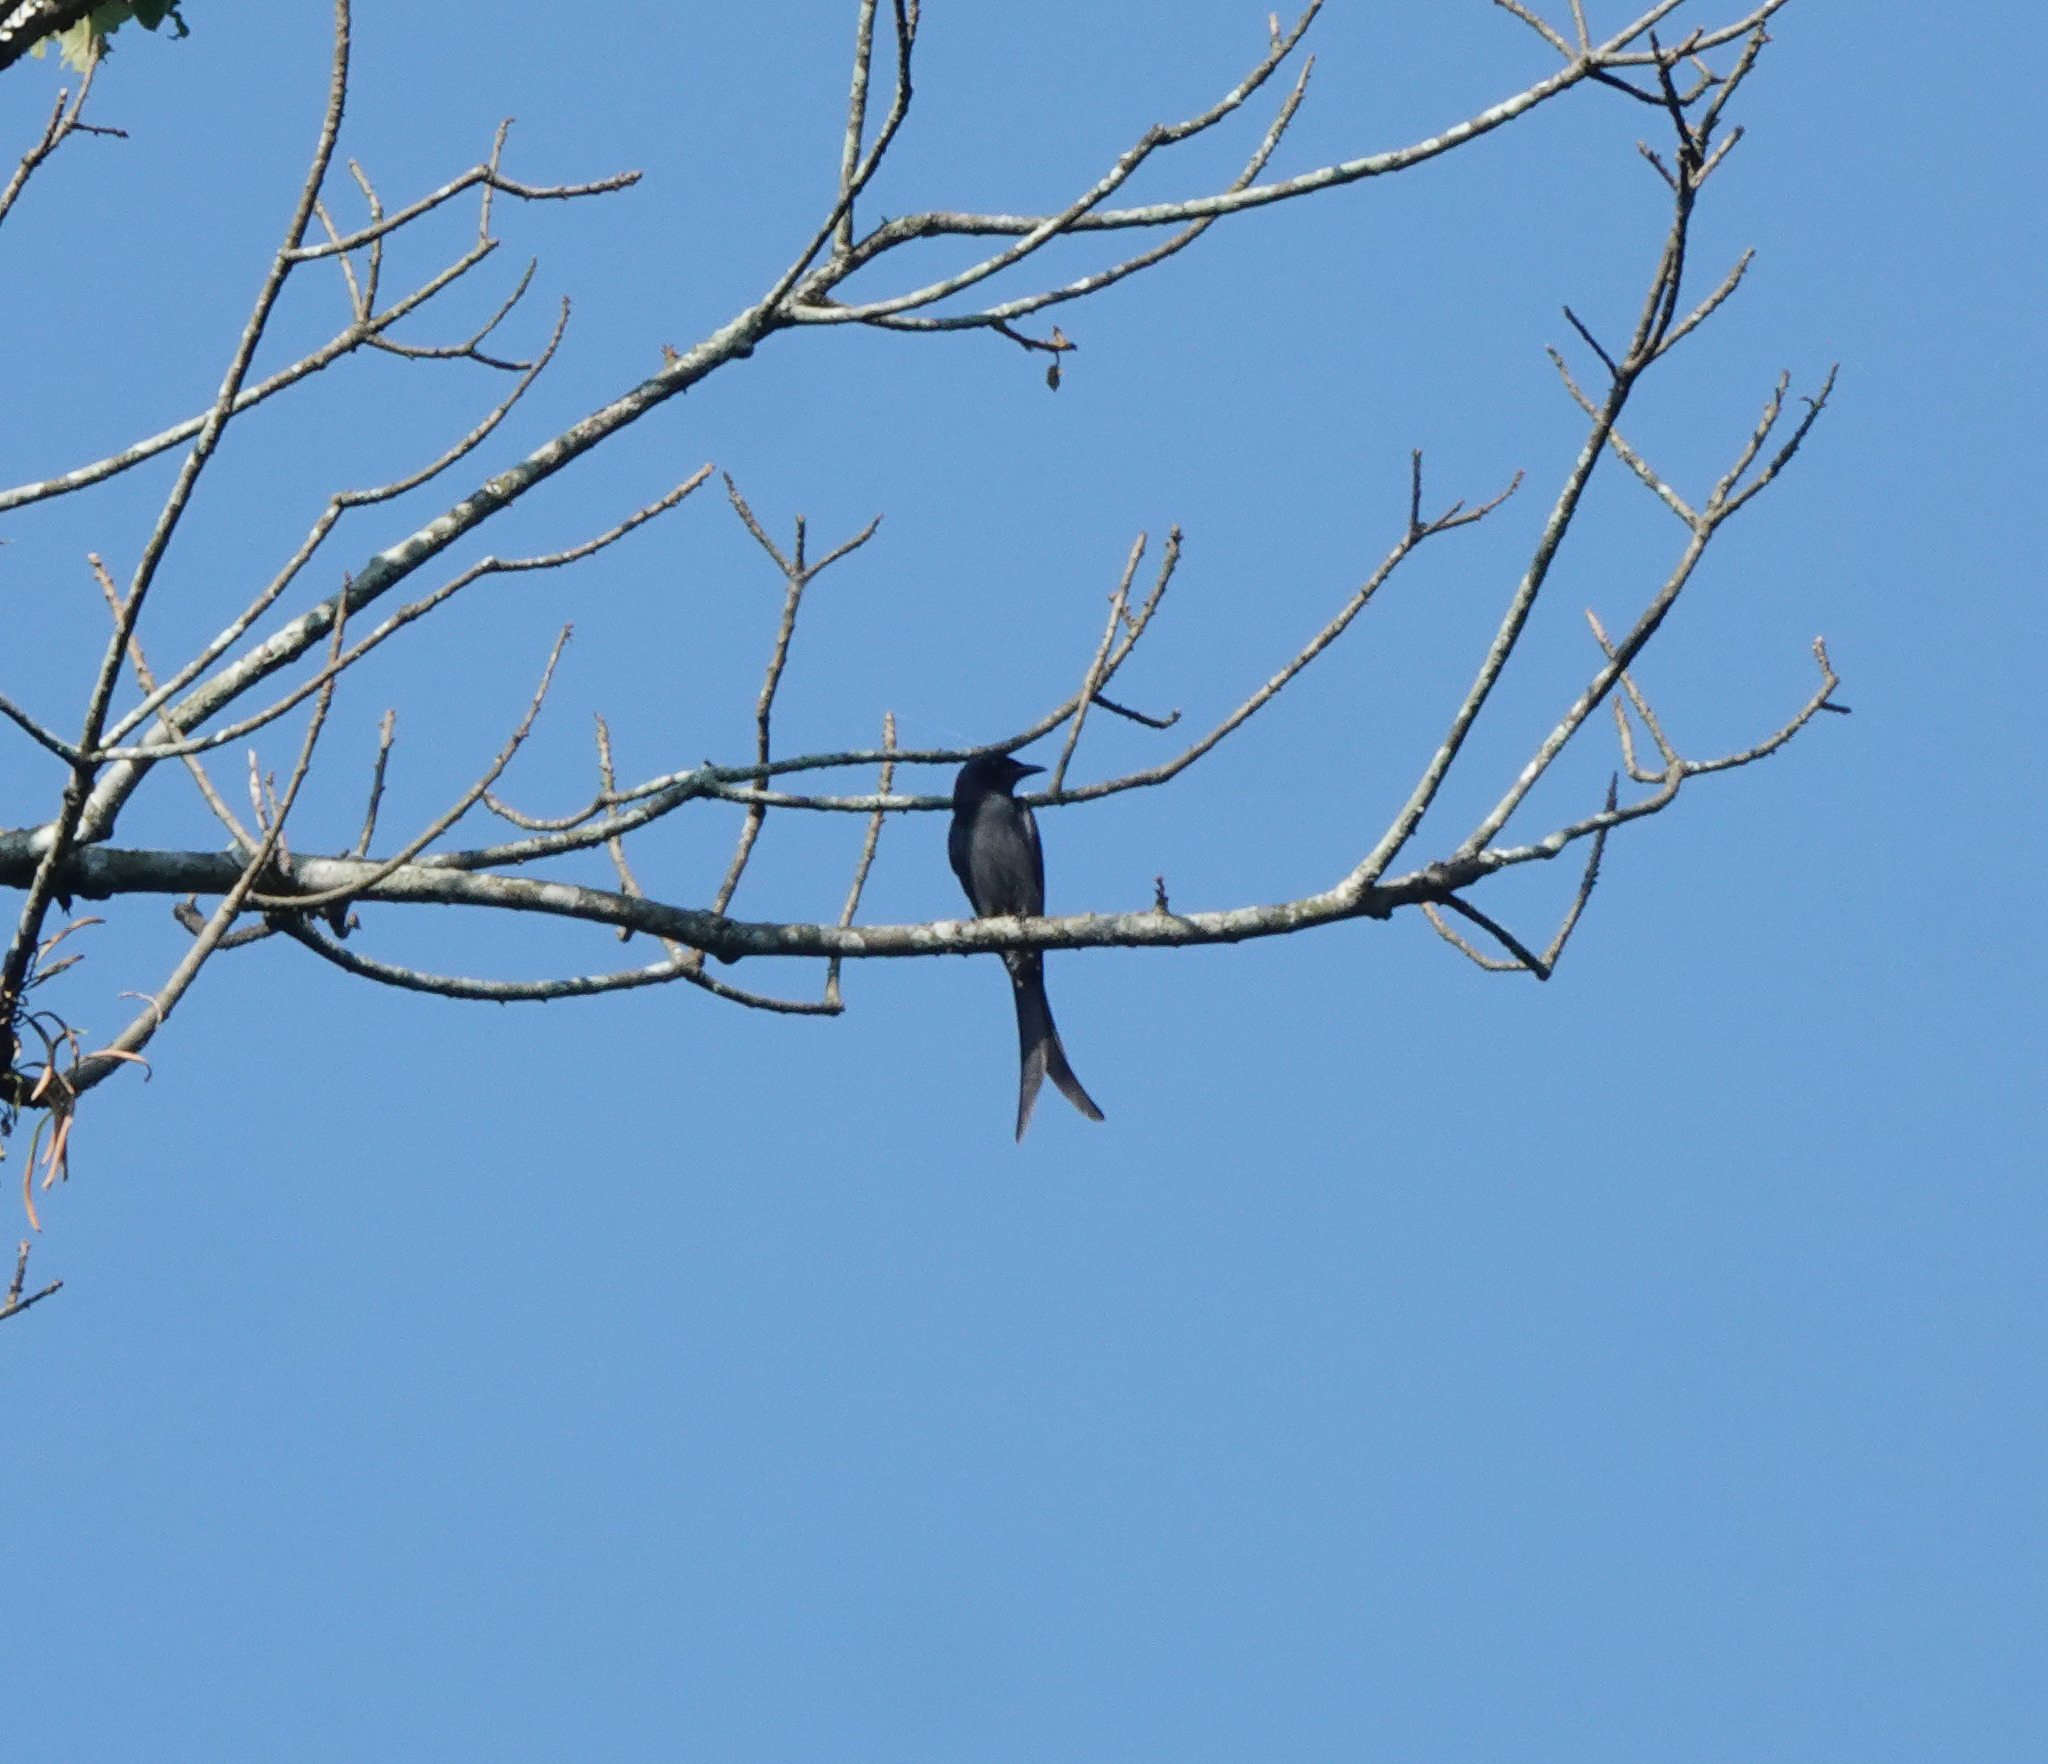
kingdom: Animalia
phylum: Chordata
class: Aves
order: Passeriformes
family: Dicruridae
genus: Dicrurus
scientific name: Dicrurus leucophaeus
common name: Ashy drongo
